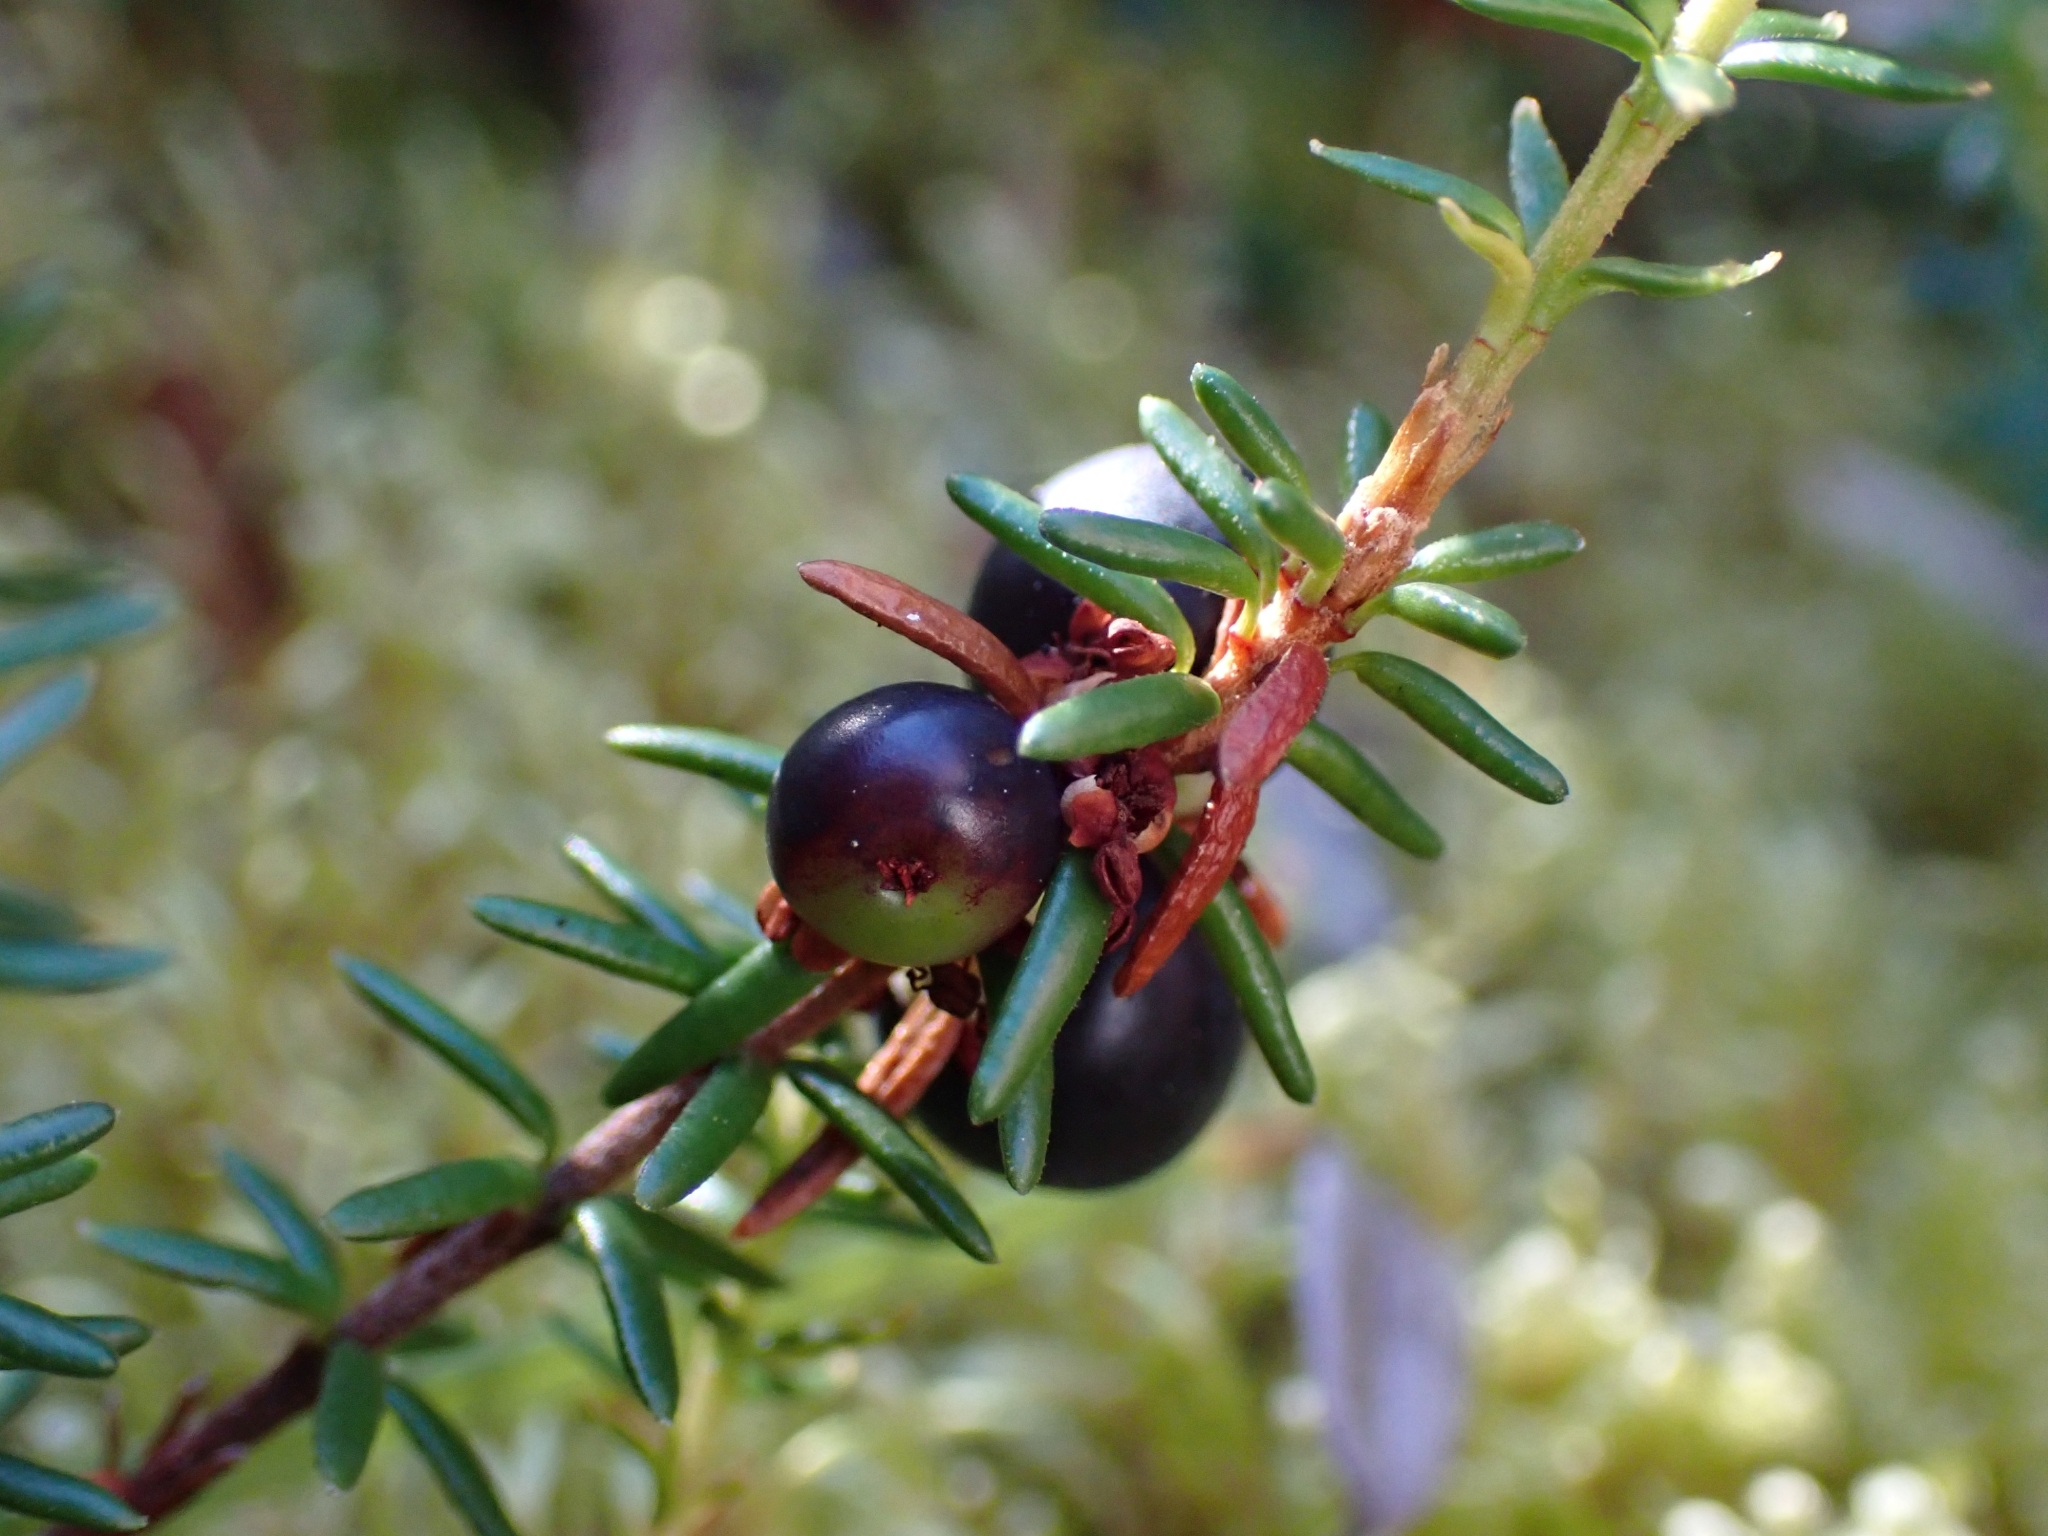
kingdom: Plantae
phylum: Tracheophyta
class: Magnoliopsida
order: Ericales
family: Ericaceae
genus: Empetrum
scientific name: Empetrum nigrum
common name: Black crowberry
